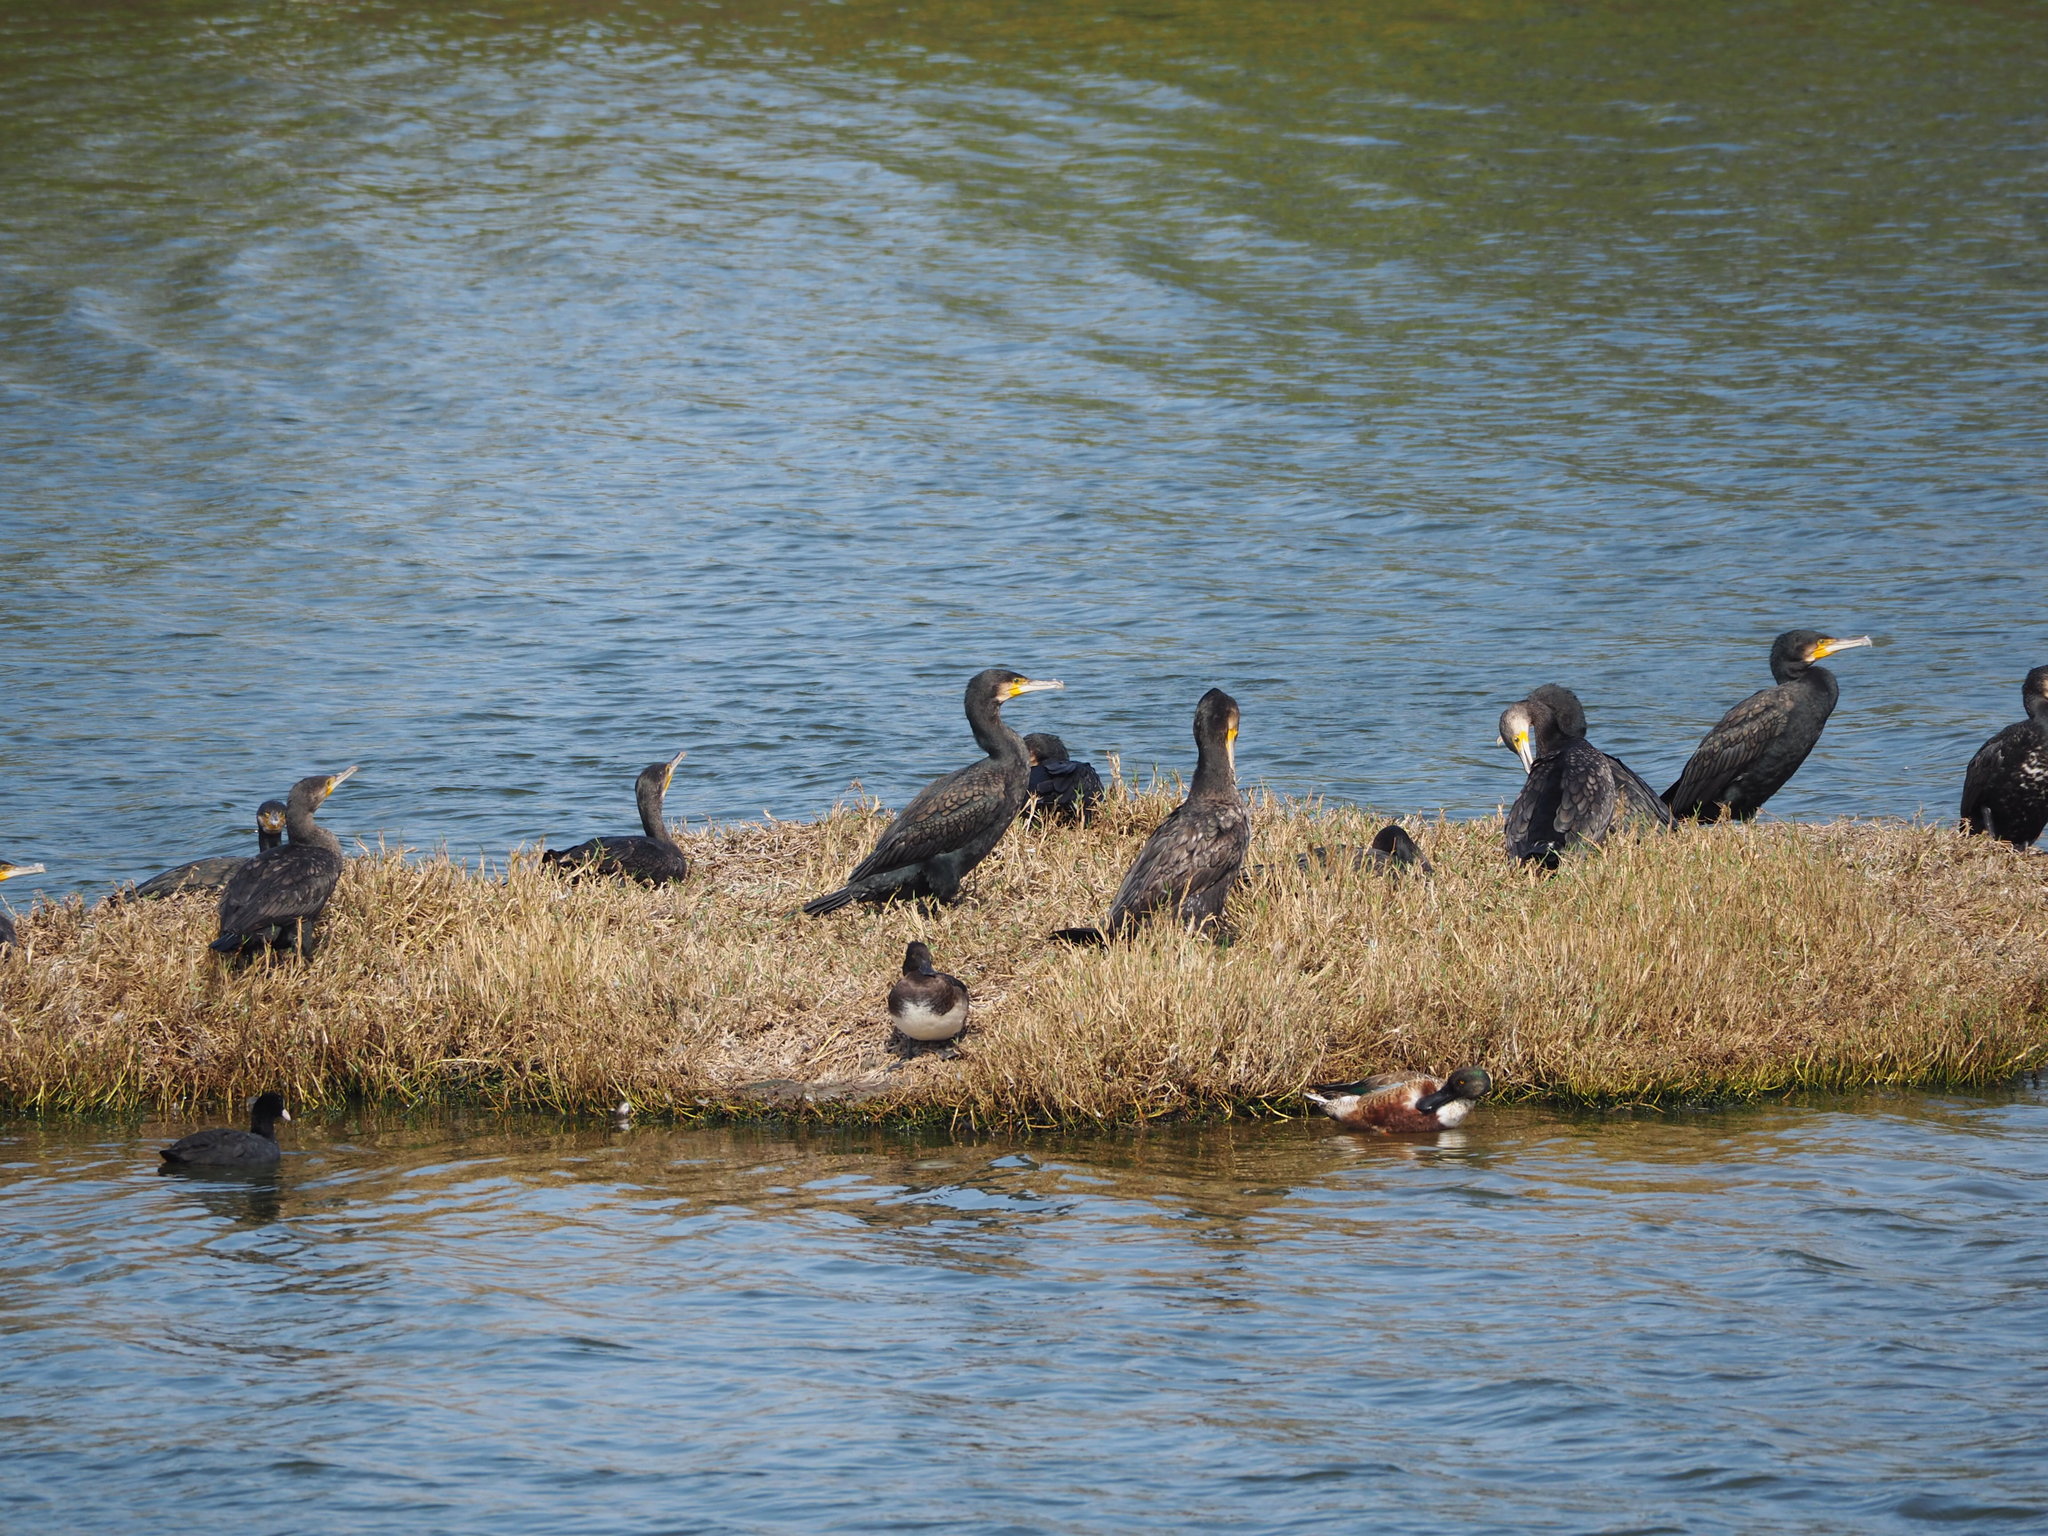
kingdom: Animalia
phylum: Chordata
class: Aves
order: Suliformes
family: Phalacrocoracidae
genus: Phalacrocorax
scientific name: Phalacrocorax carbo
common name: Great cormorant
